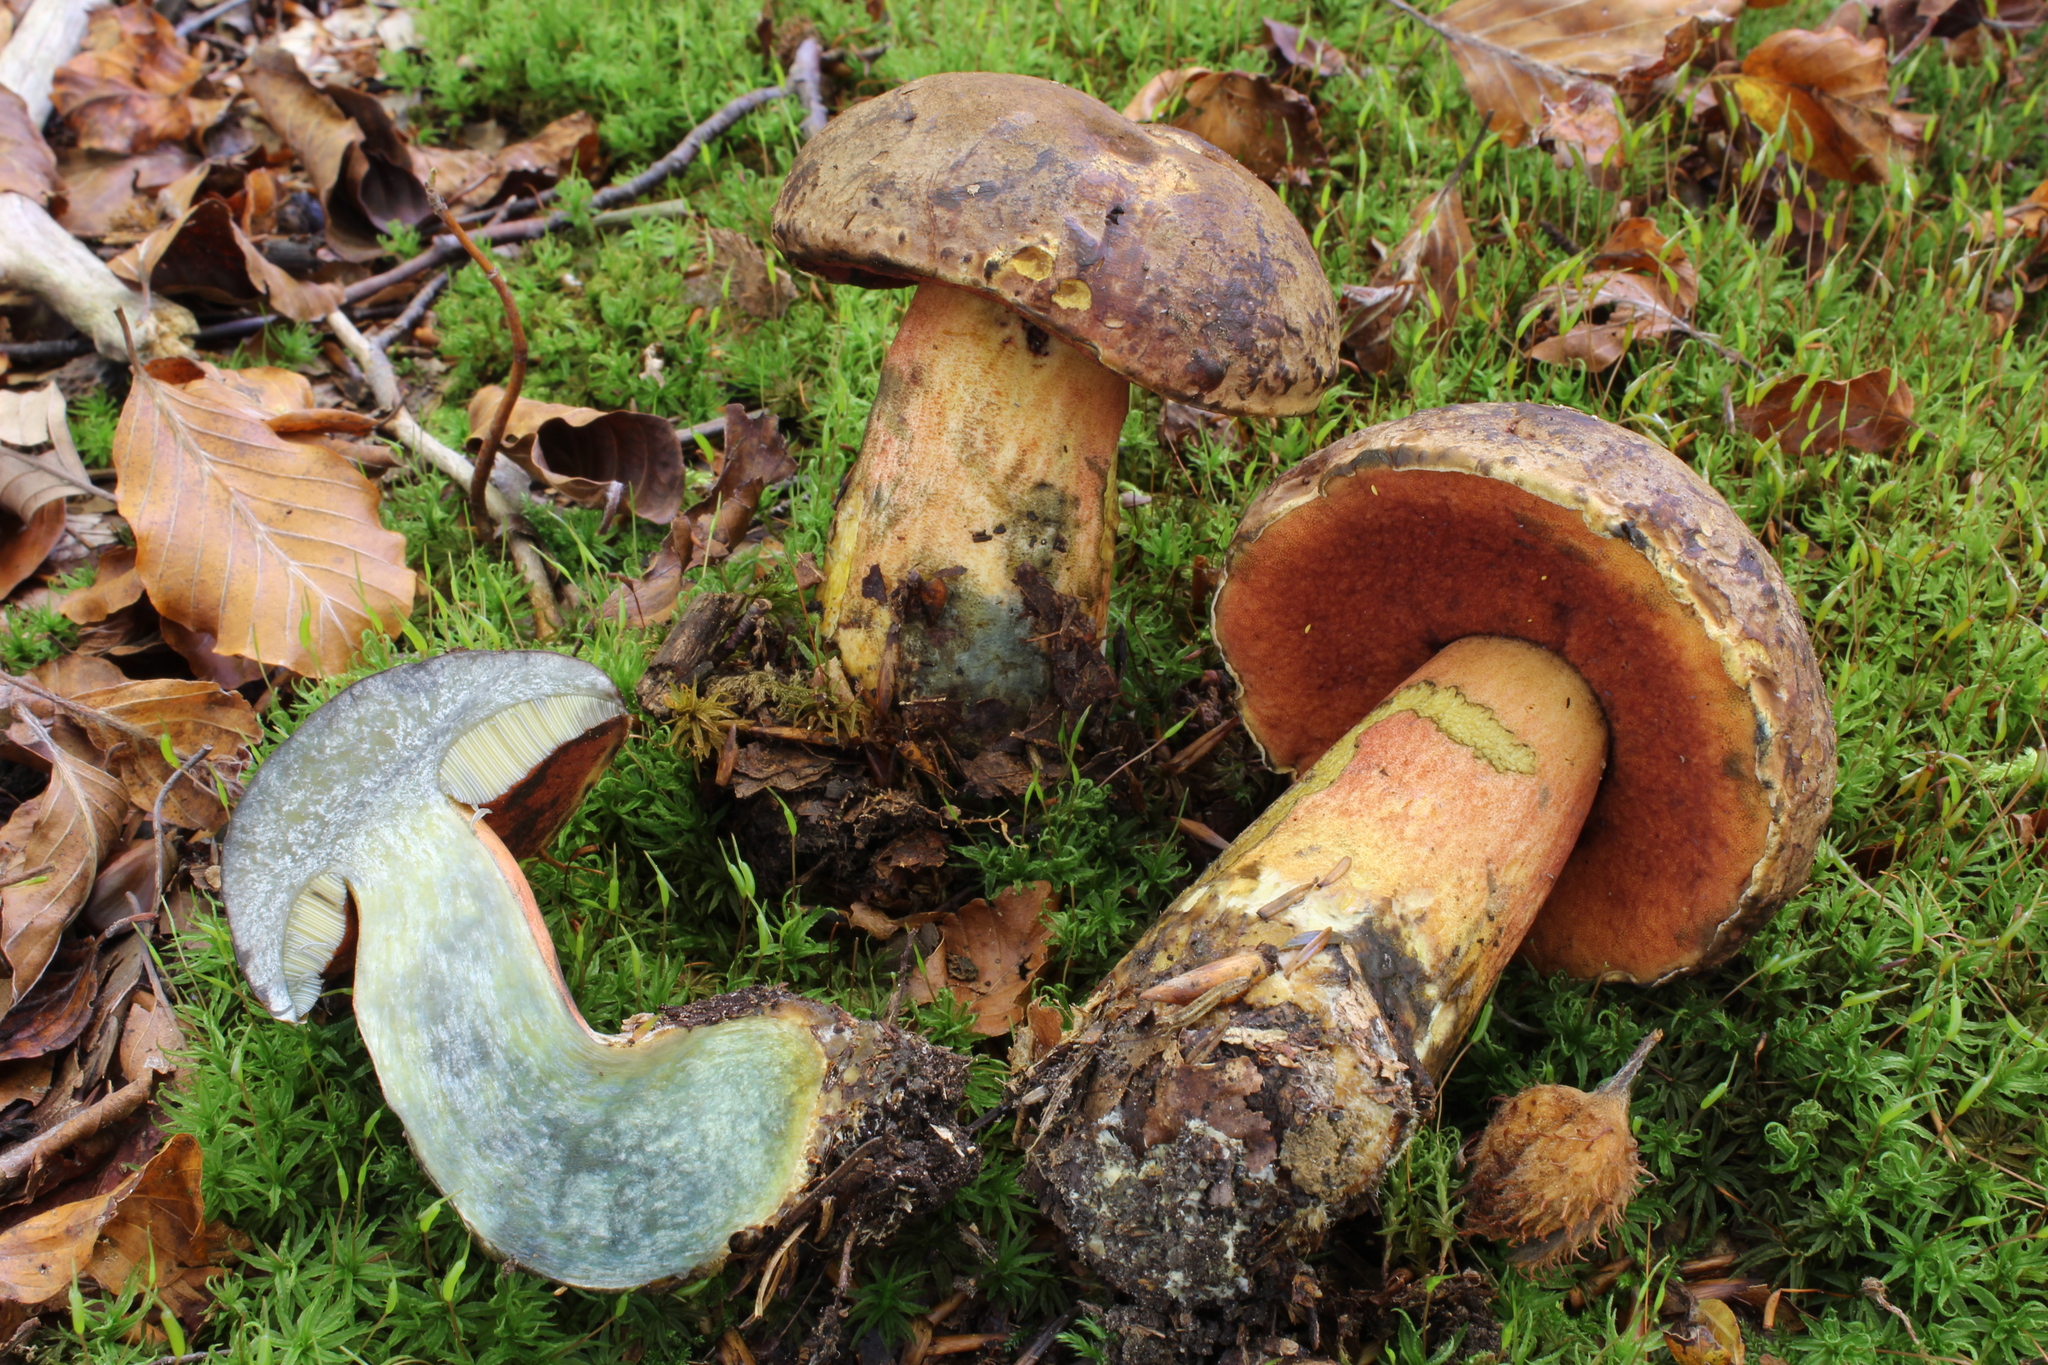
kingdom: Fungi
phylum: Basidiomycota
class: Agaricomycetes
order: Boletales
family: Boletaceae
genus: Neoboletus
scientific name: Neoboletus erythropus
